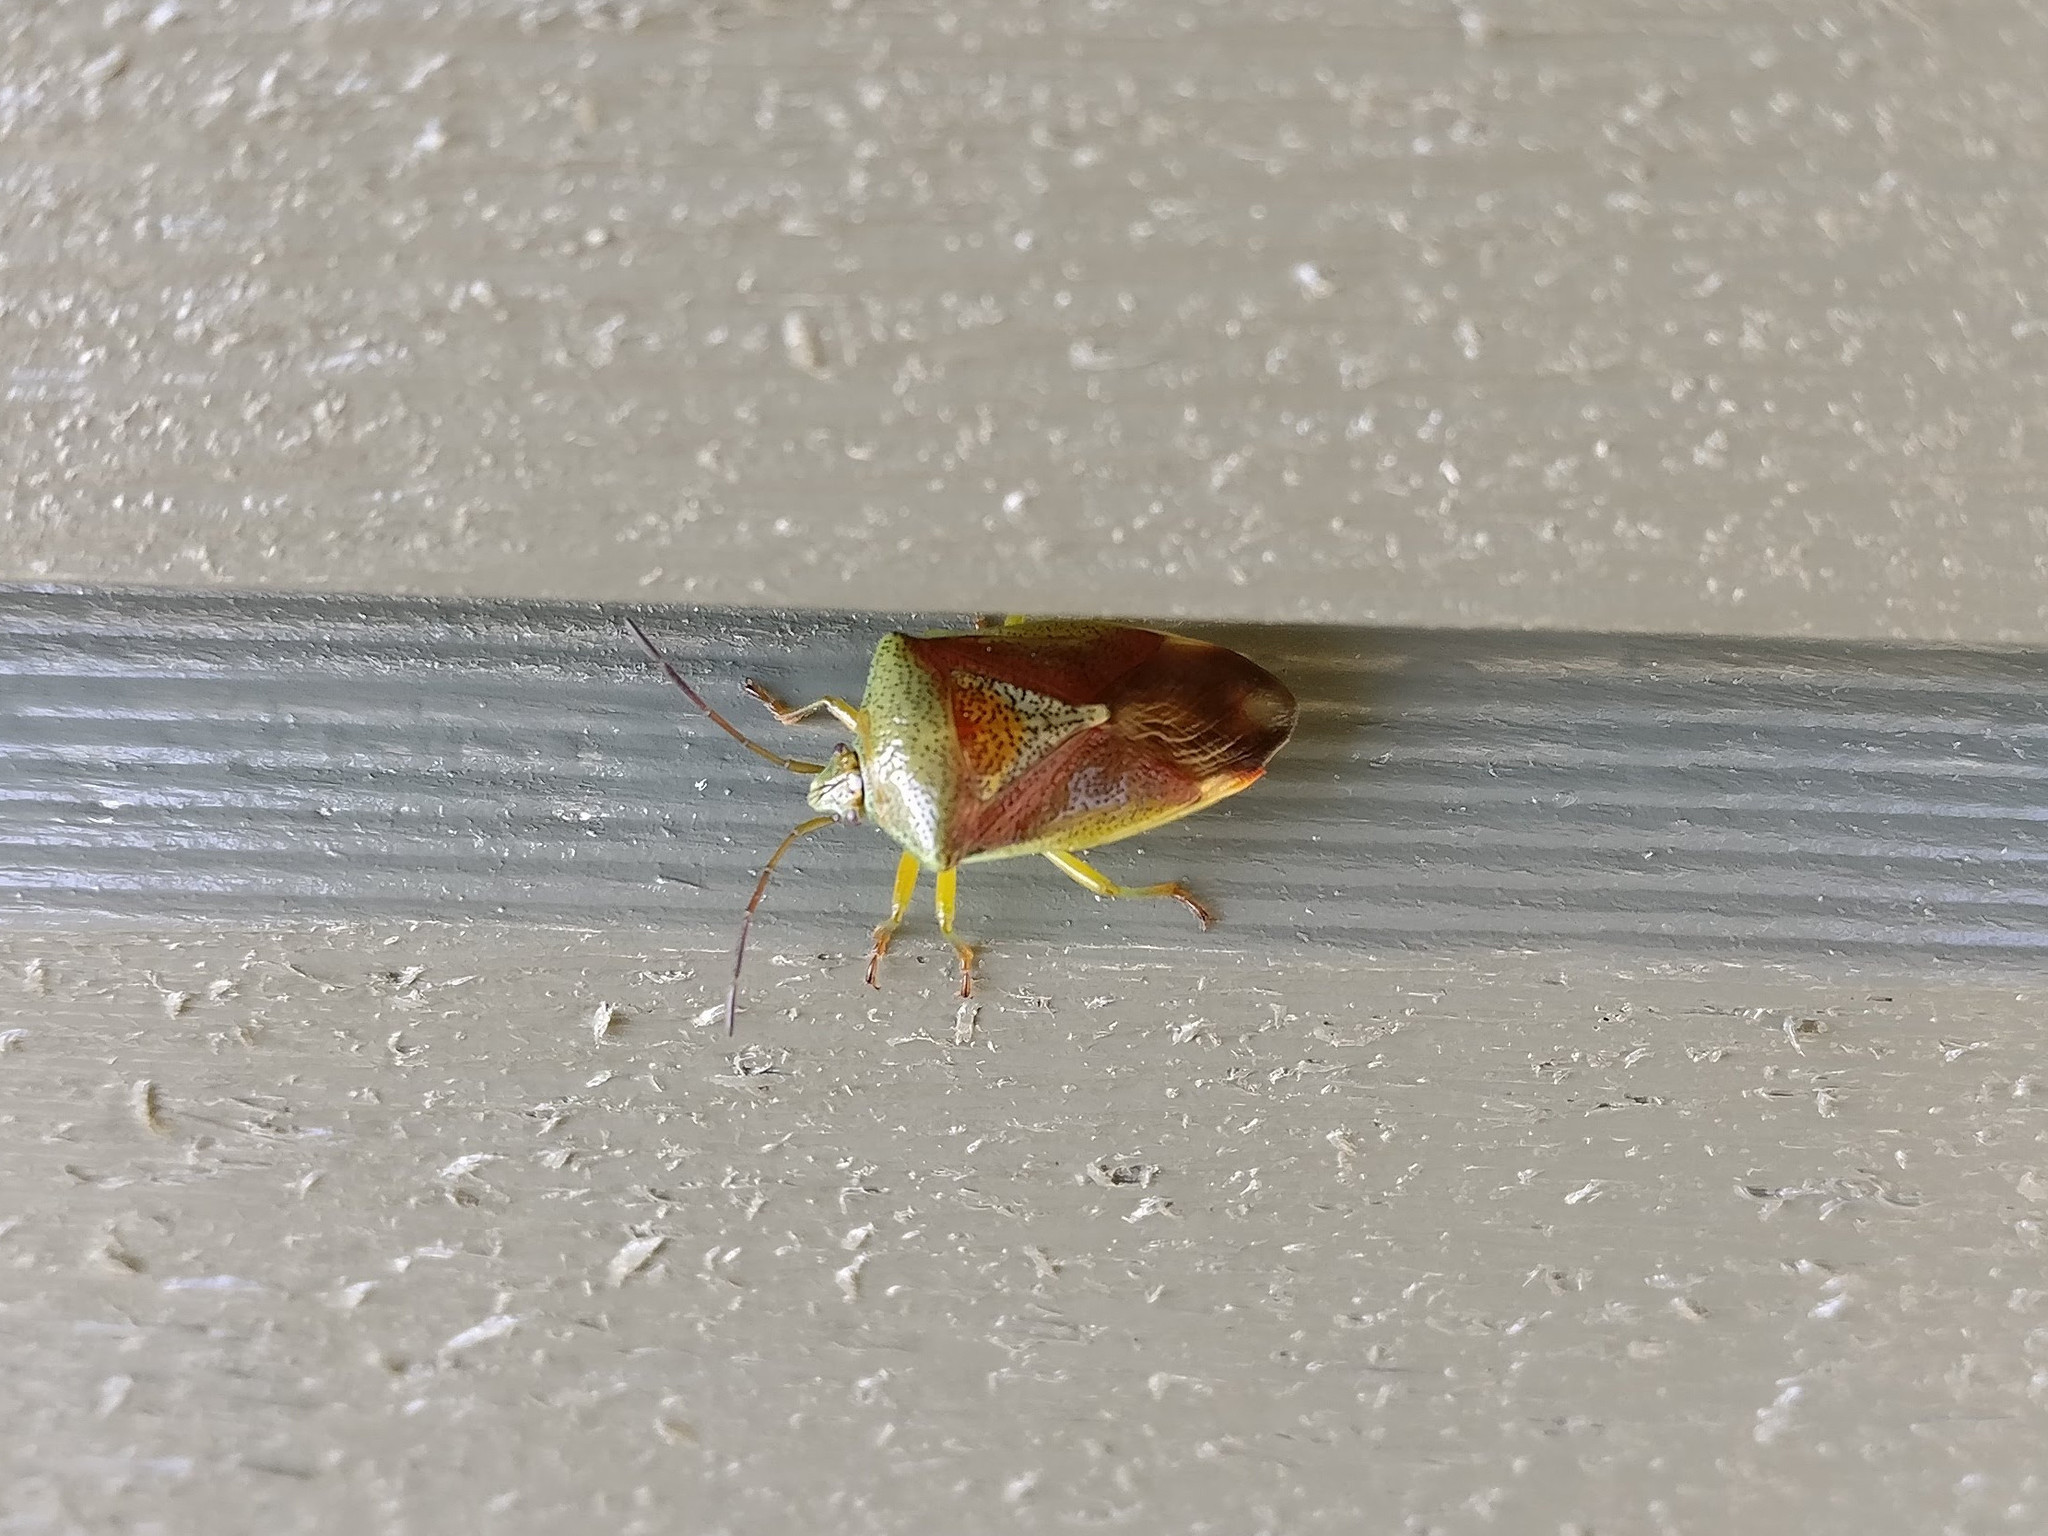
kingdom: Animalia
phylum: Arthropoda
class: Insecta
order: Hemiptera
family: Acanthosomatidae
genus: Elasmostethus
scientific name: Elasmostethus interstinctus
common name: Birch shieldbug
